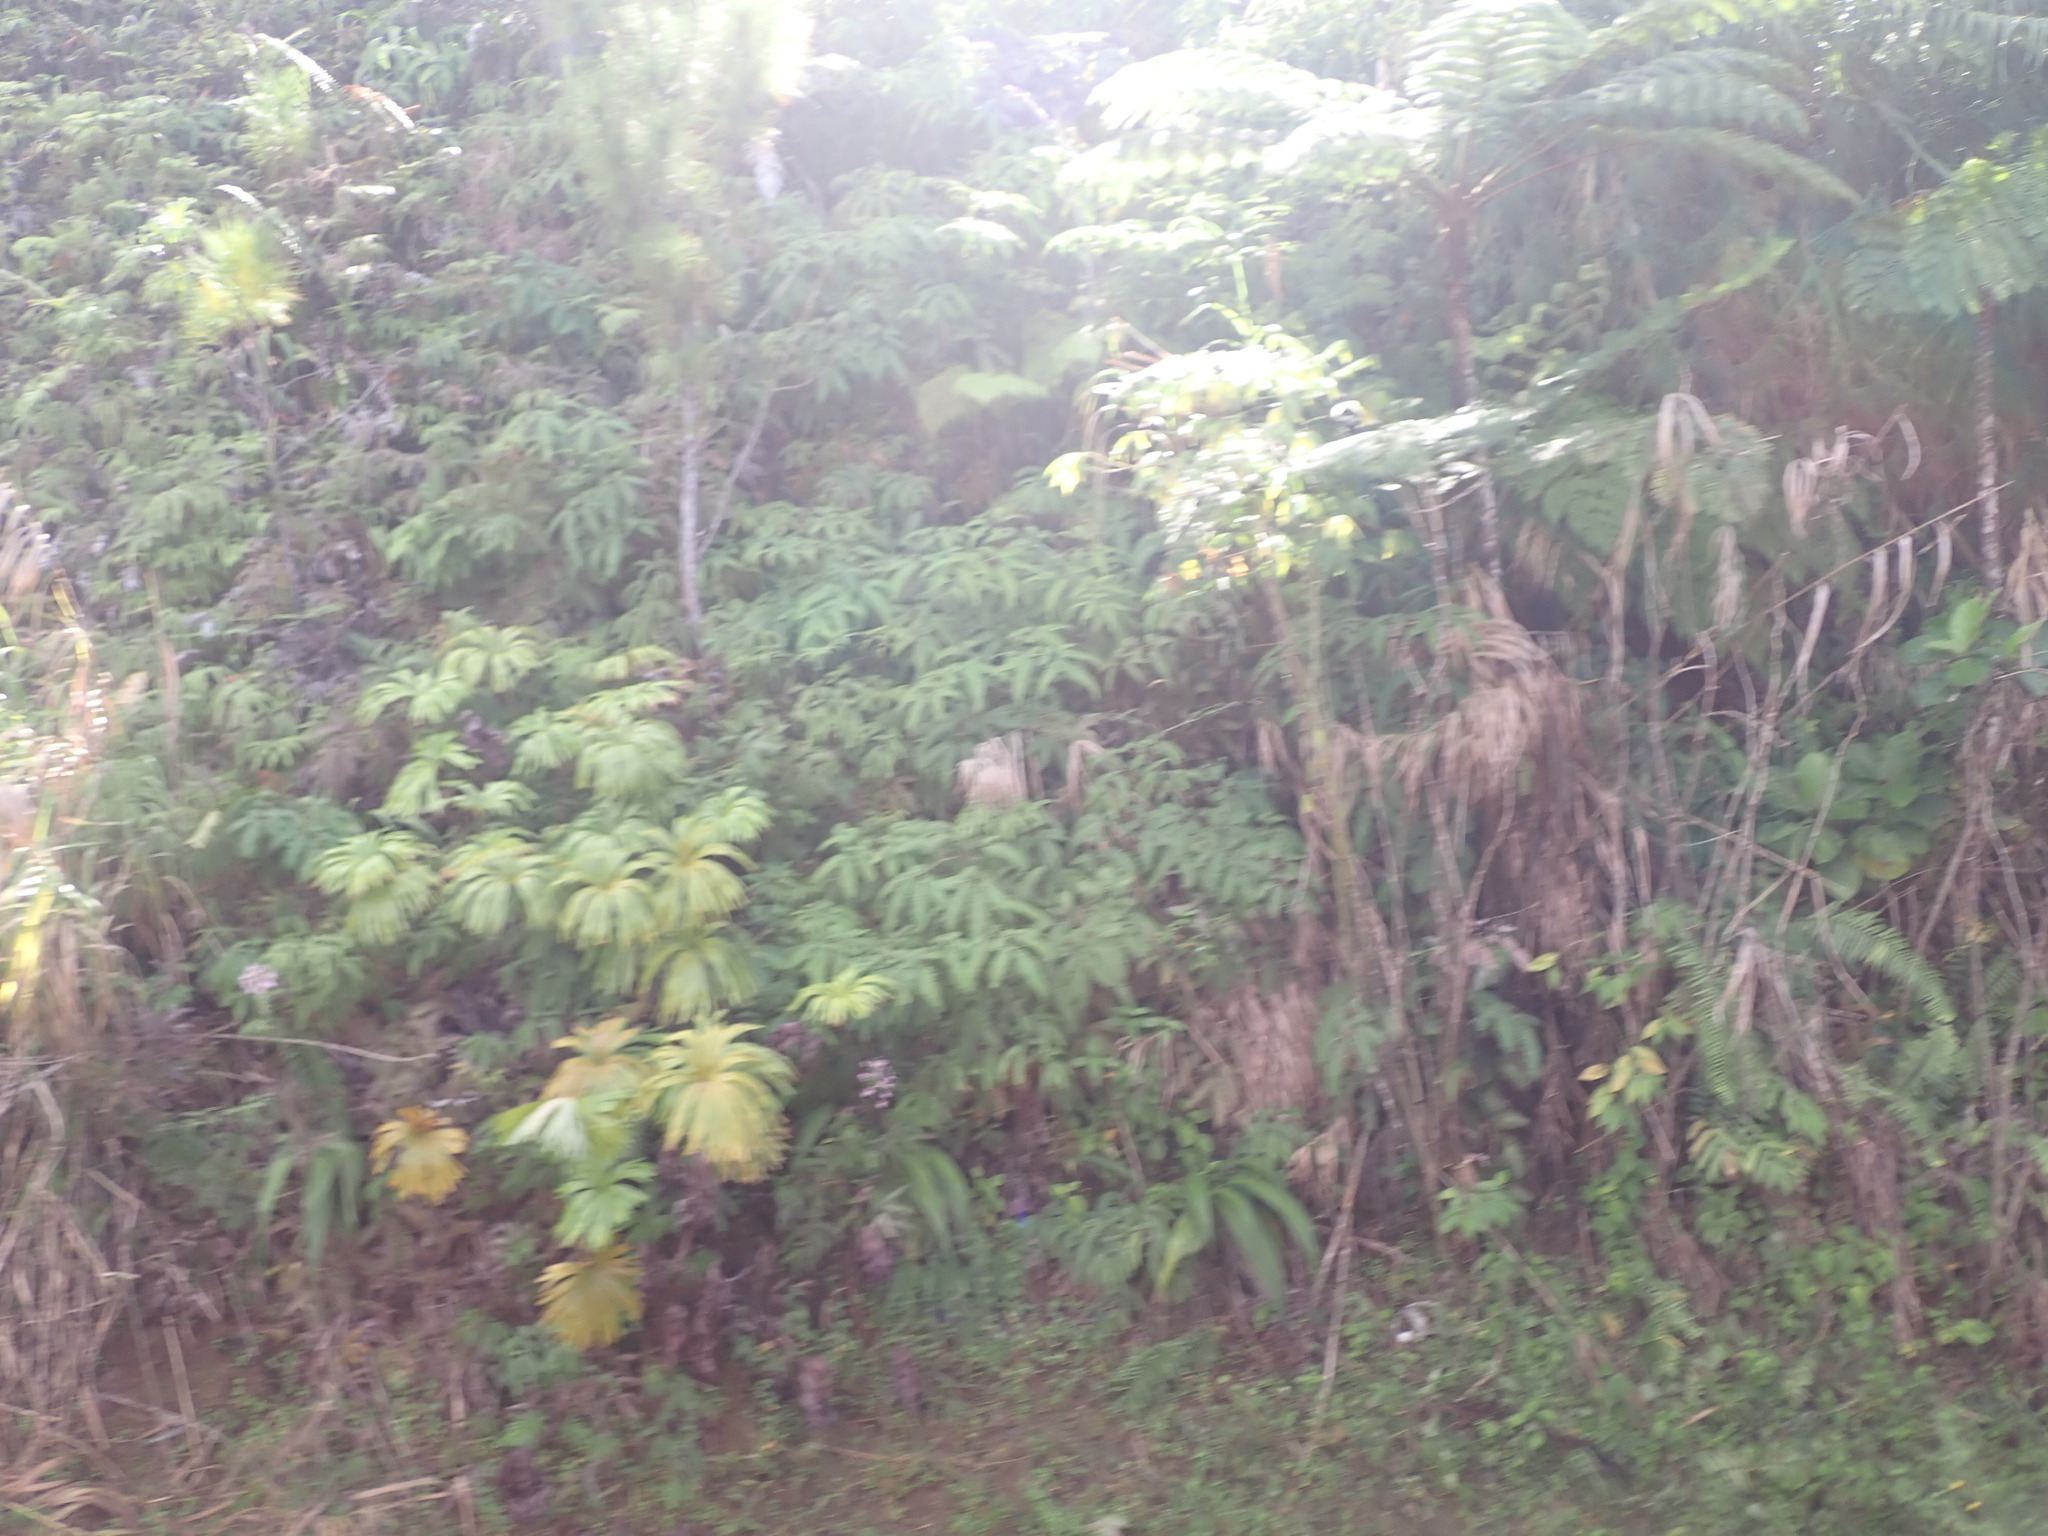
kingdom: Plantae
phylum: Tracheophyta
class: Polypodiopsida
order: Gleicheniales
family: Dipteridaceae
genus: Dipteris
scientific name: Dipteris conjugata
